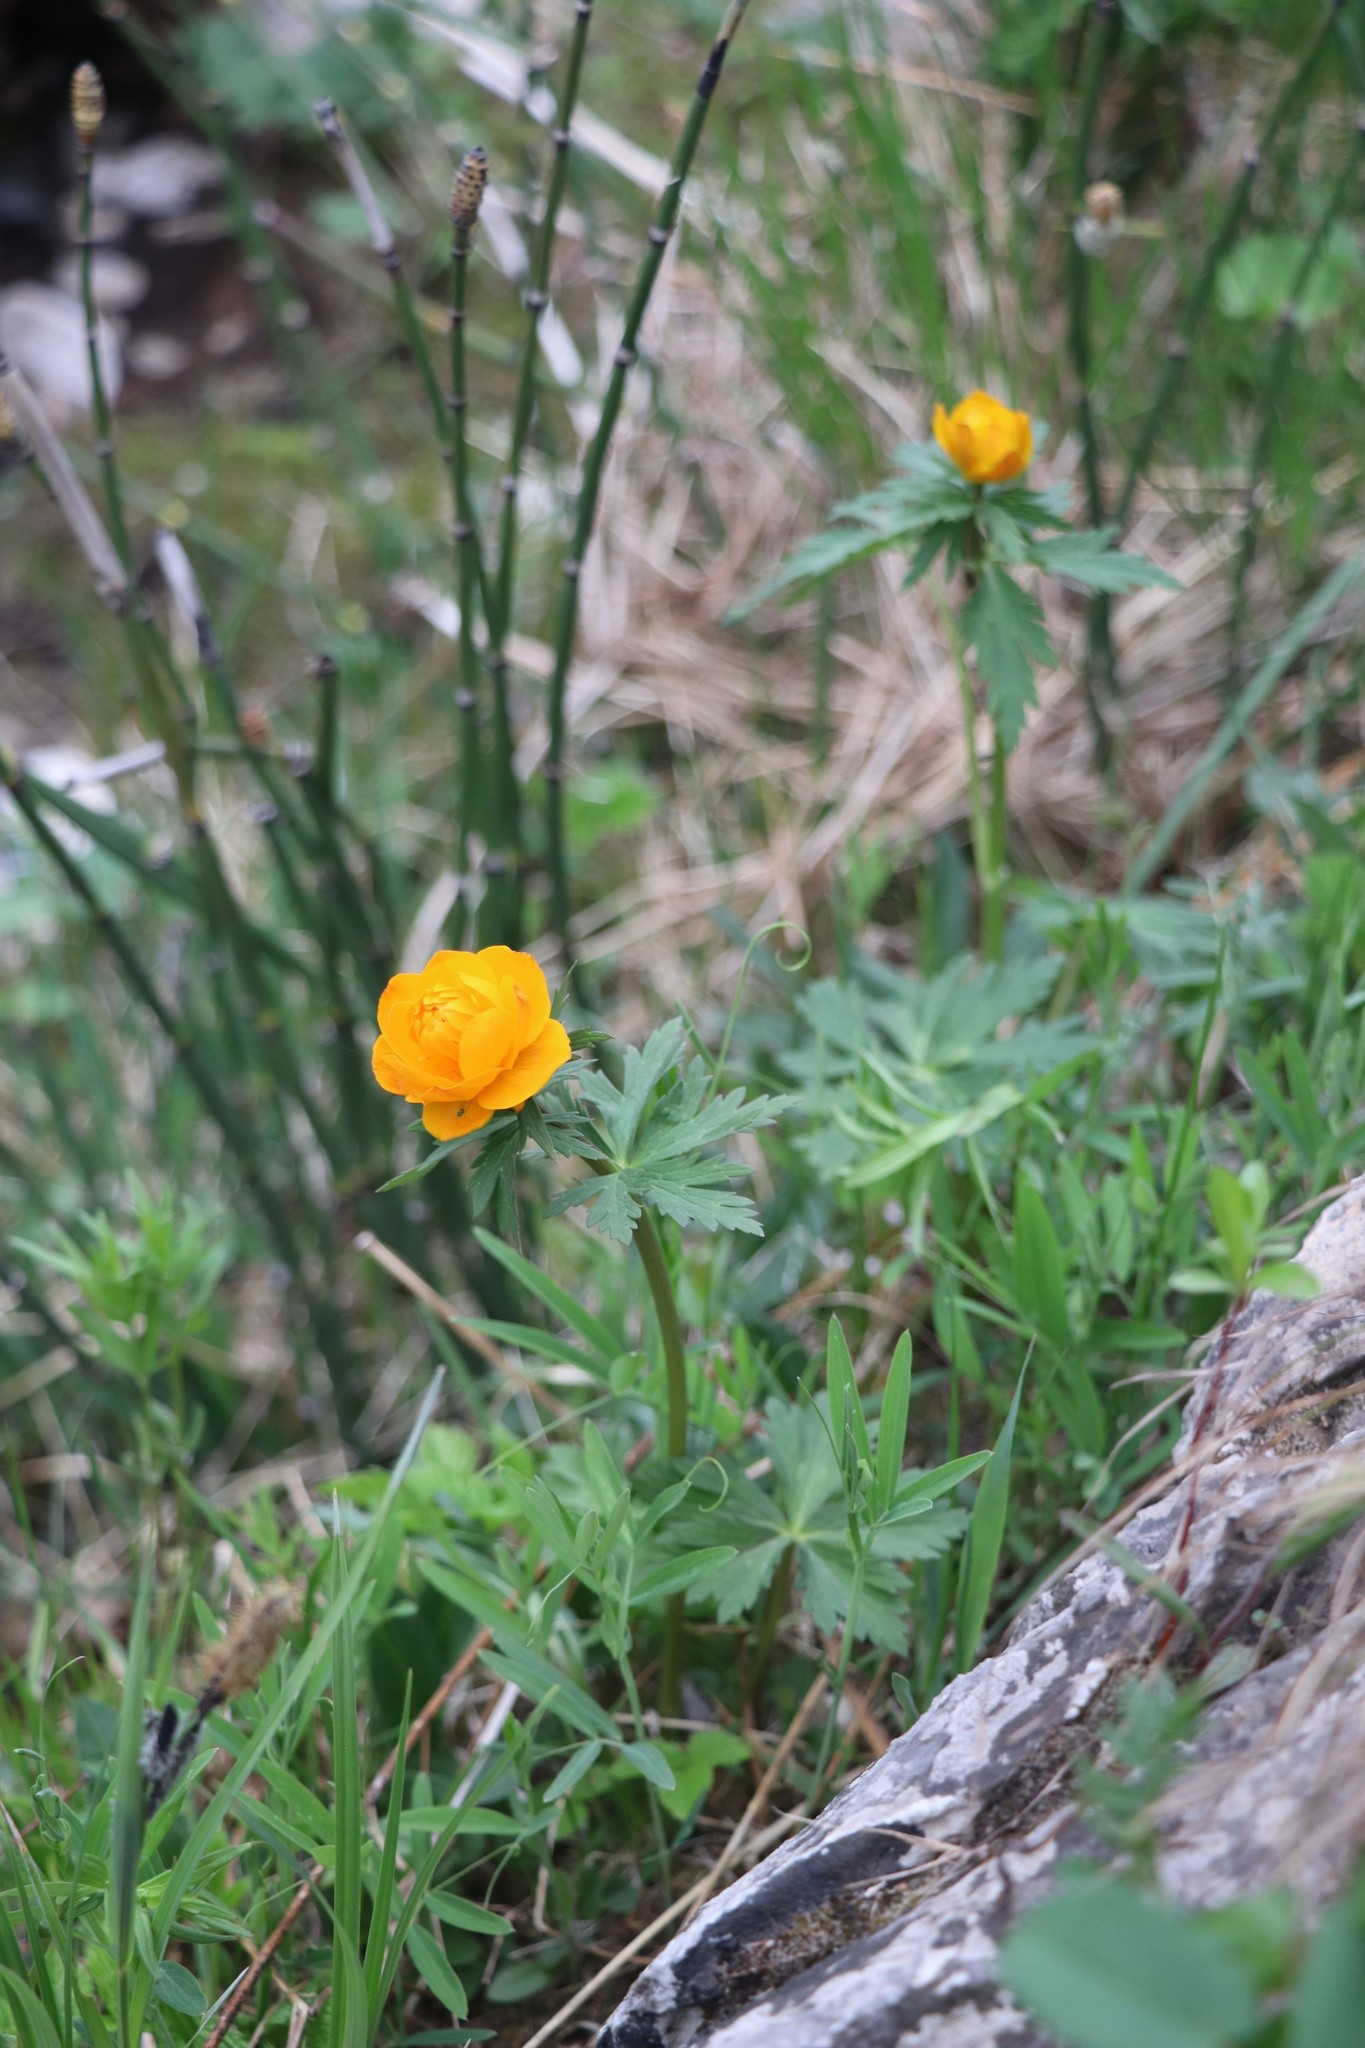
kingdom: Plantae
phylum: Tracheophyta
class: Magnoliopsida
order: Ranunculales
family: Ranunculaceae
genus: Trollius
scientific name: Trollius asiaticus
